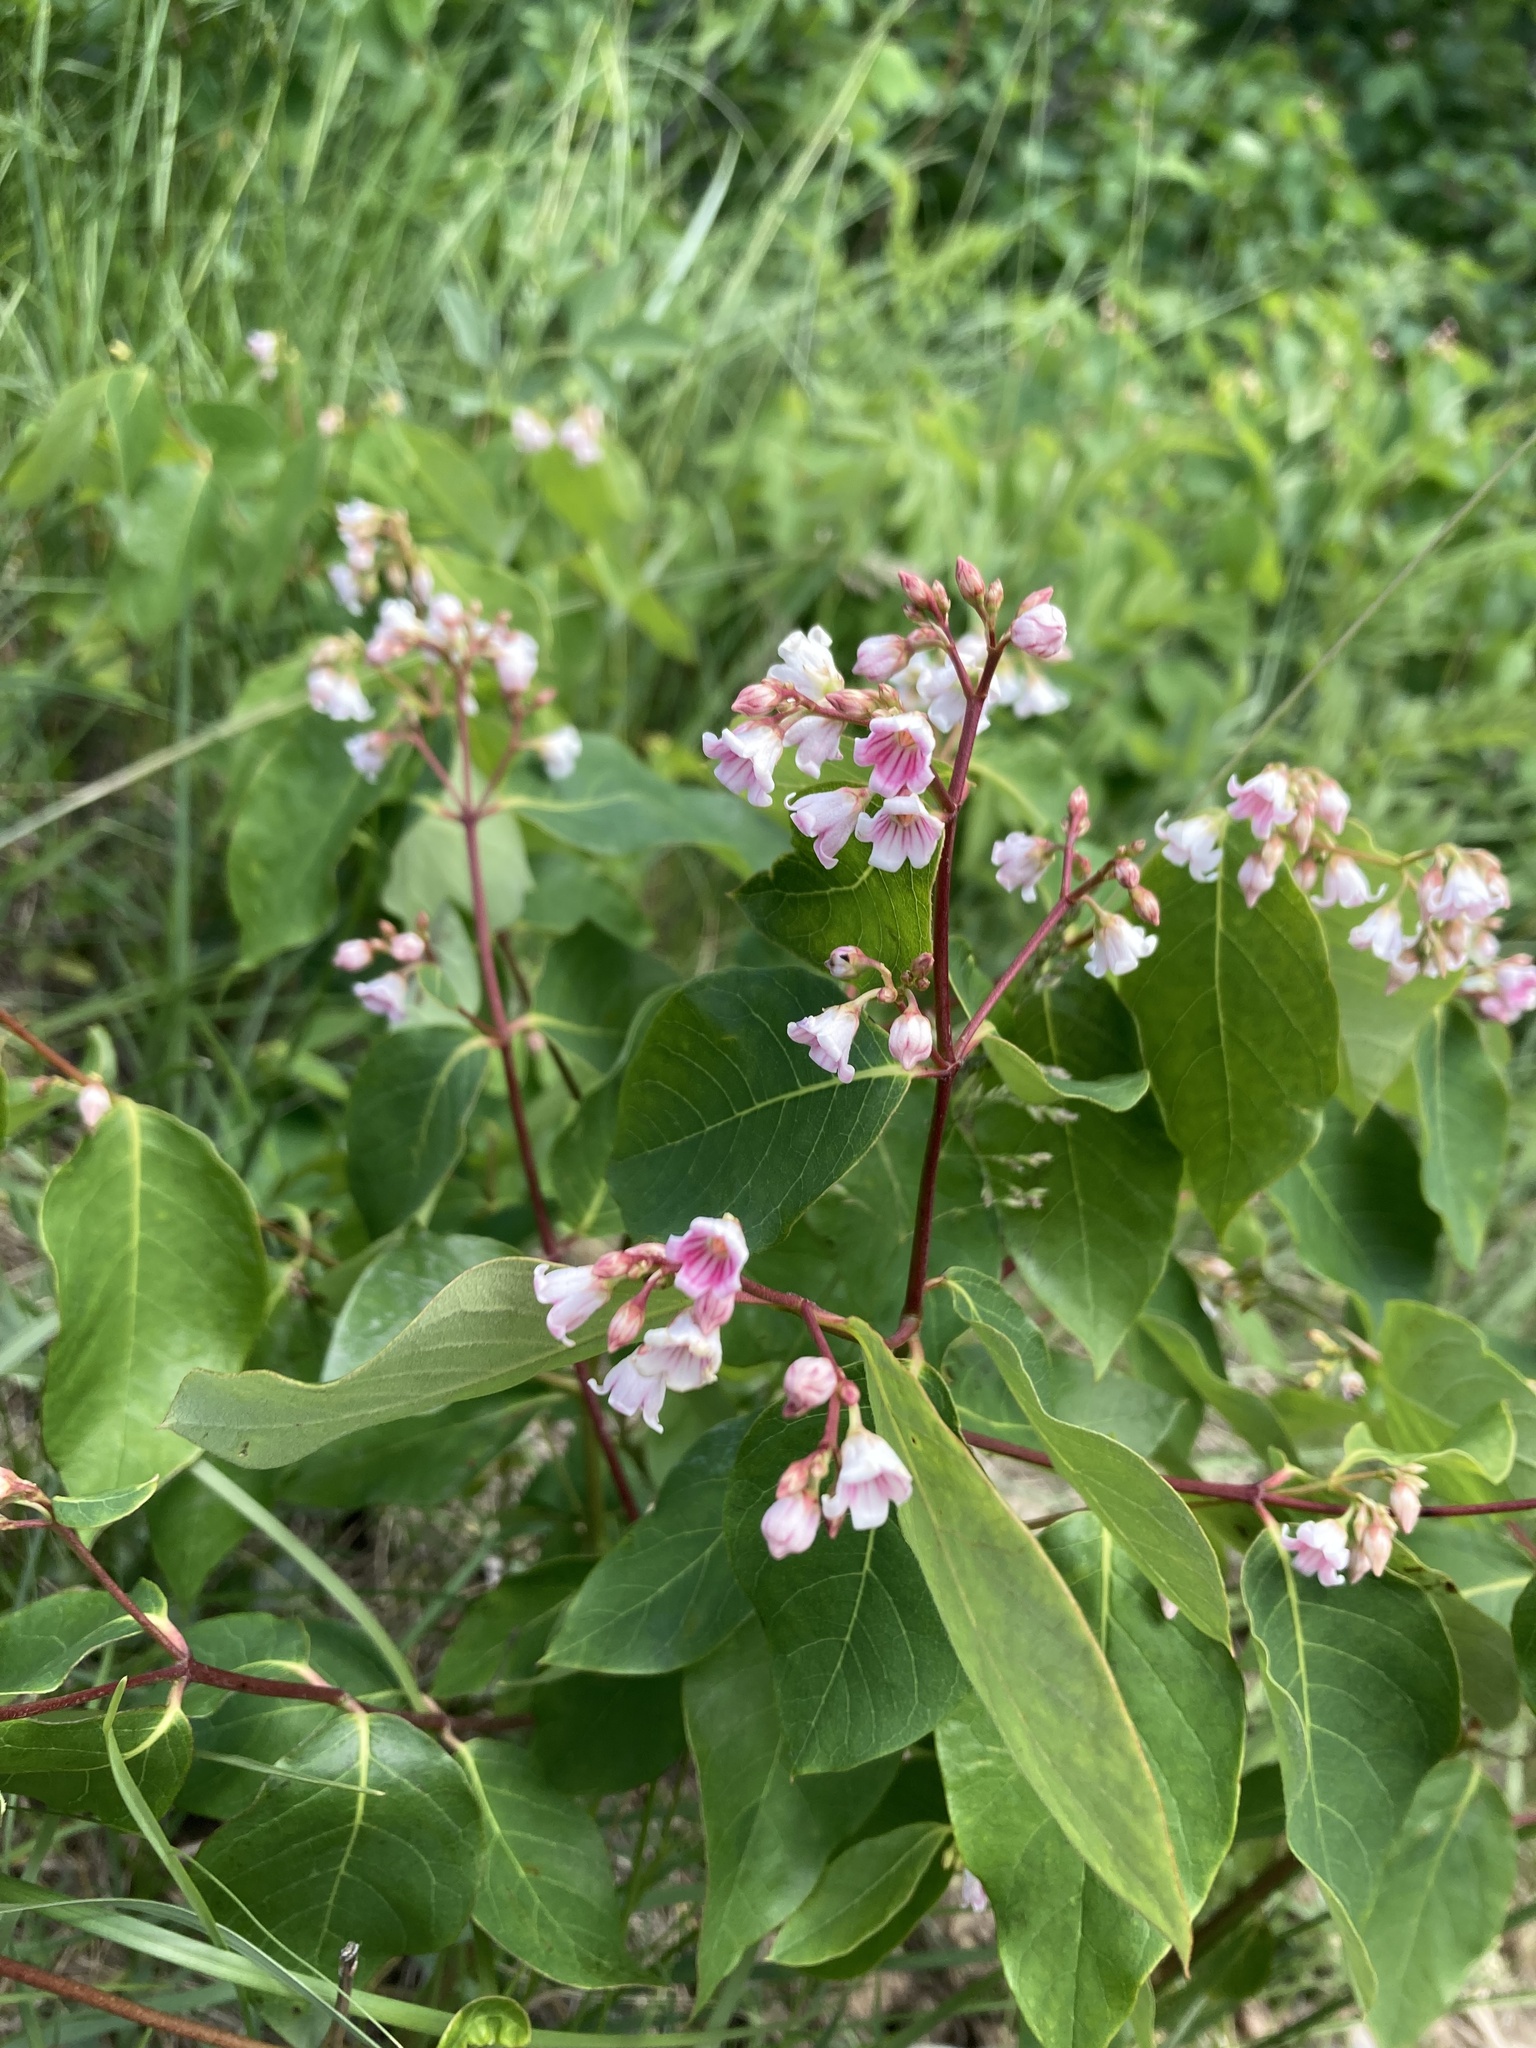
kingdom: Plantae
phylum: Tracheophyta
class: Magnoliopsida
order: Gentianales
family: Apocynaceae
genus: Apocynum
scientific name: Apocynum androsaemifolium
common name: Spreading dogbane
